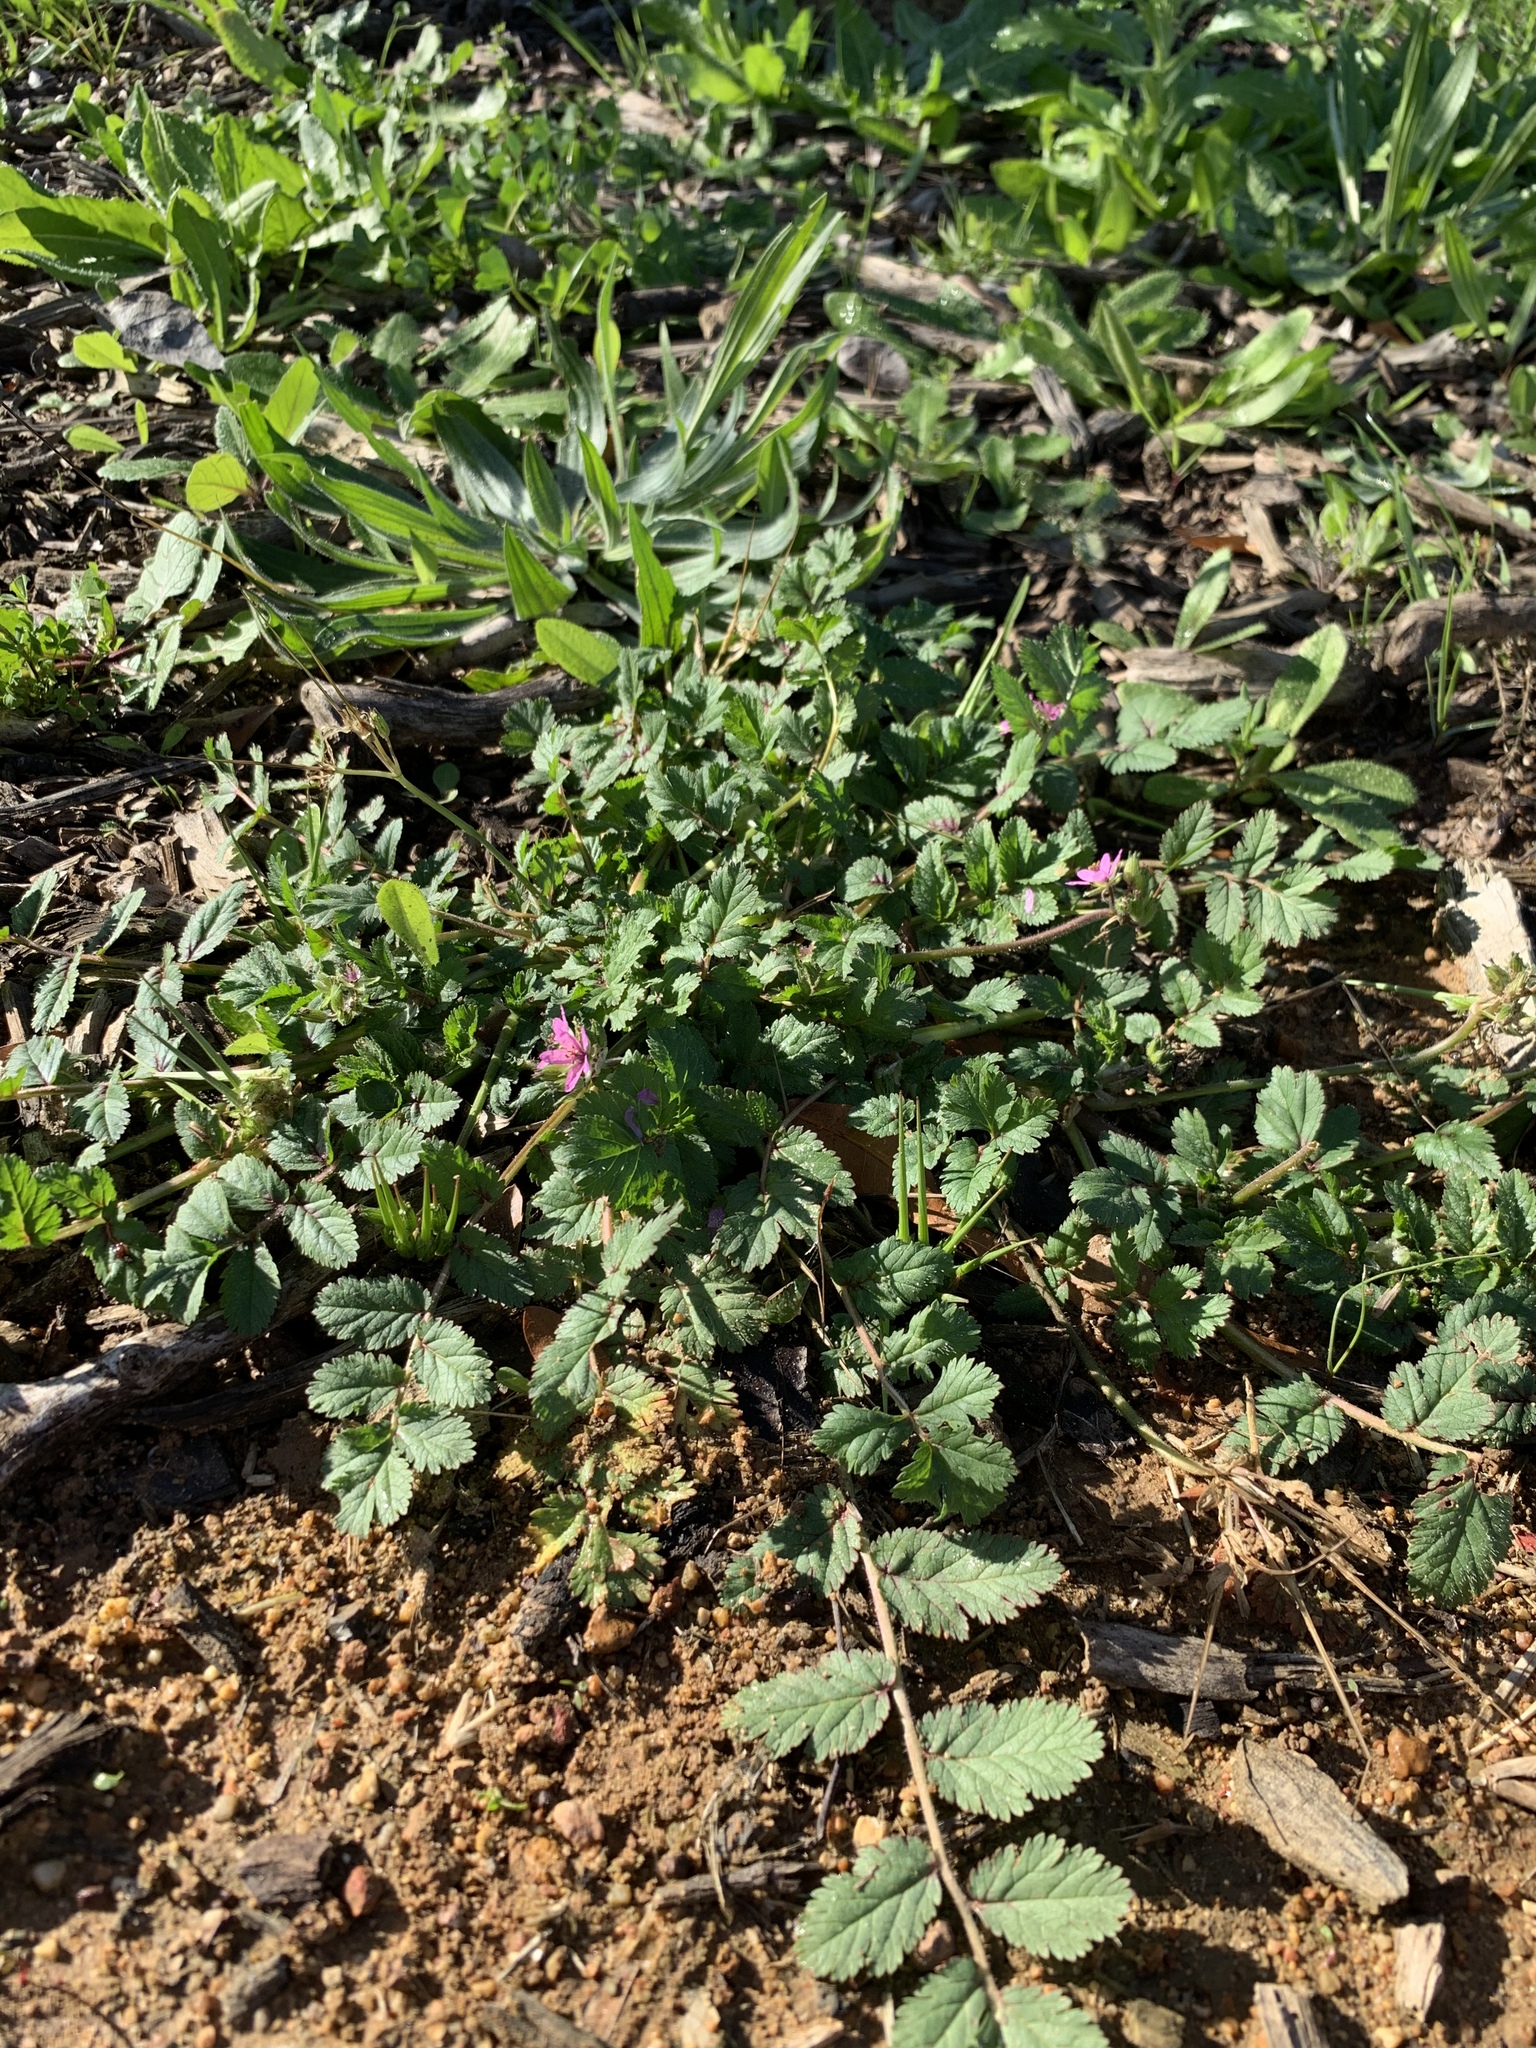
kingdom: Plantae
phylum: Tracheophyta
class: Magnoliopsida
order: Geraniales
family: Geraniaceae
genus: Erodium
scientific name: Erodium moschatum
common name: Musk stork's-bill
